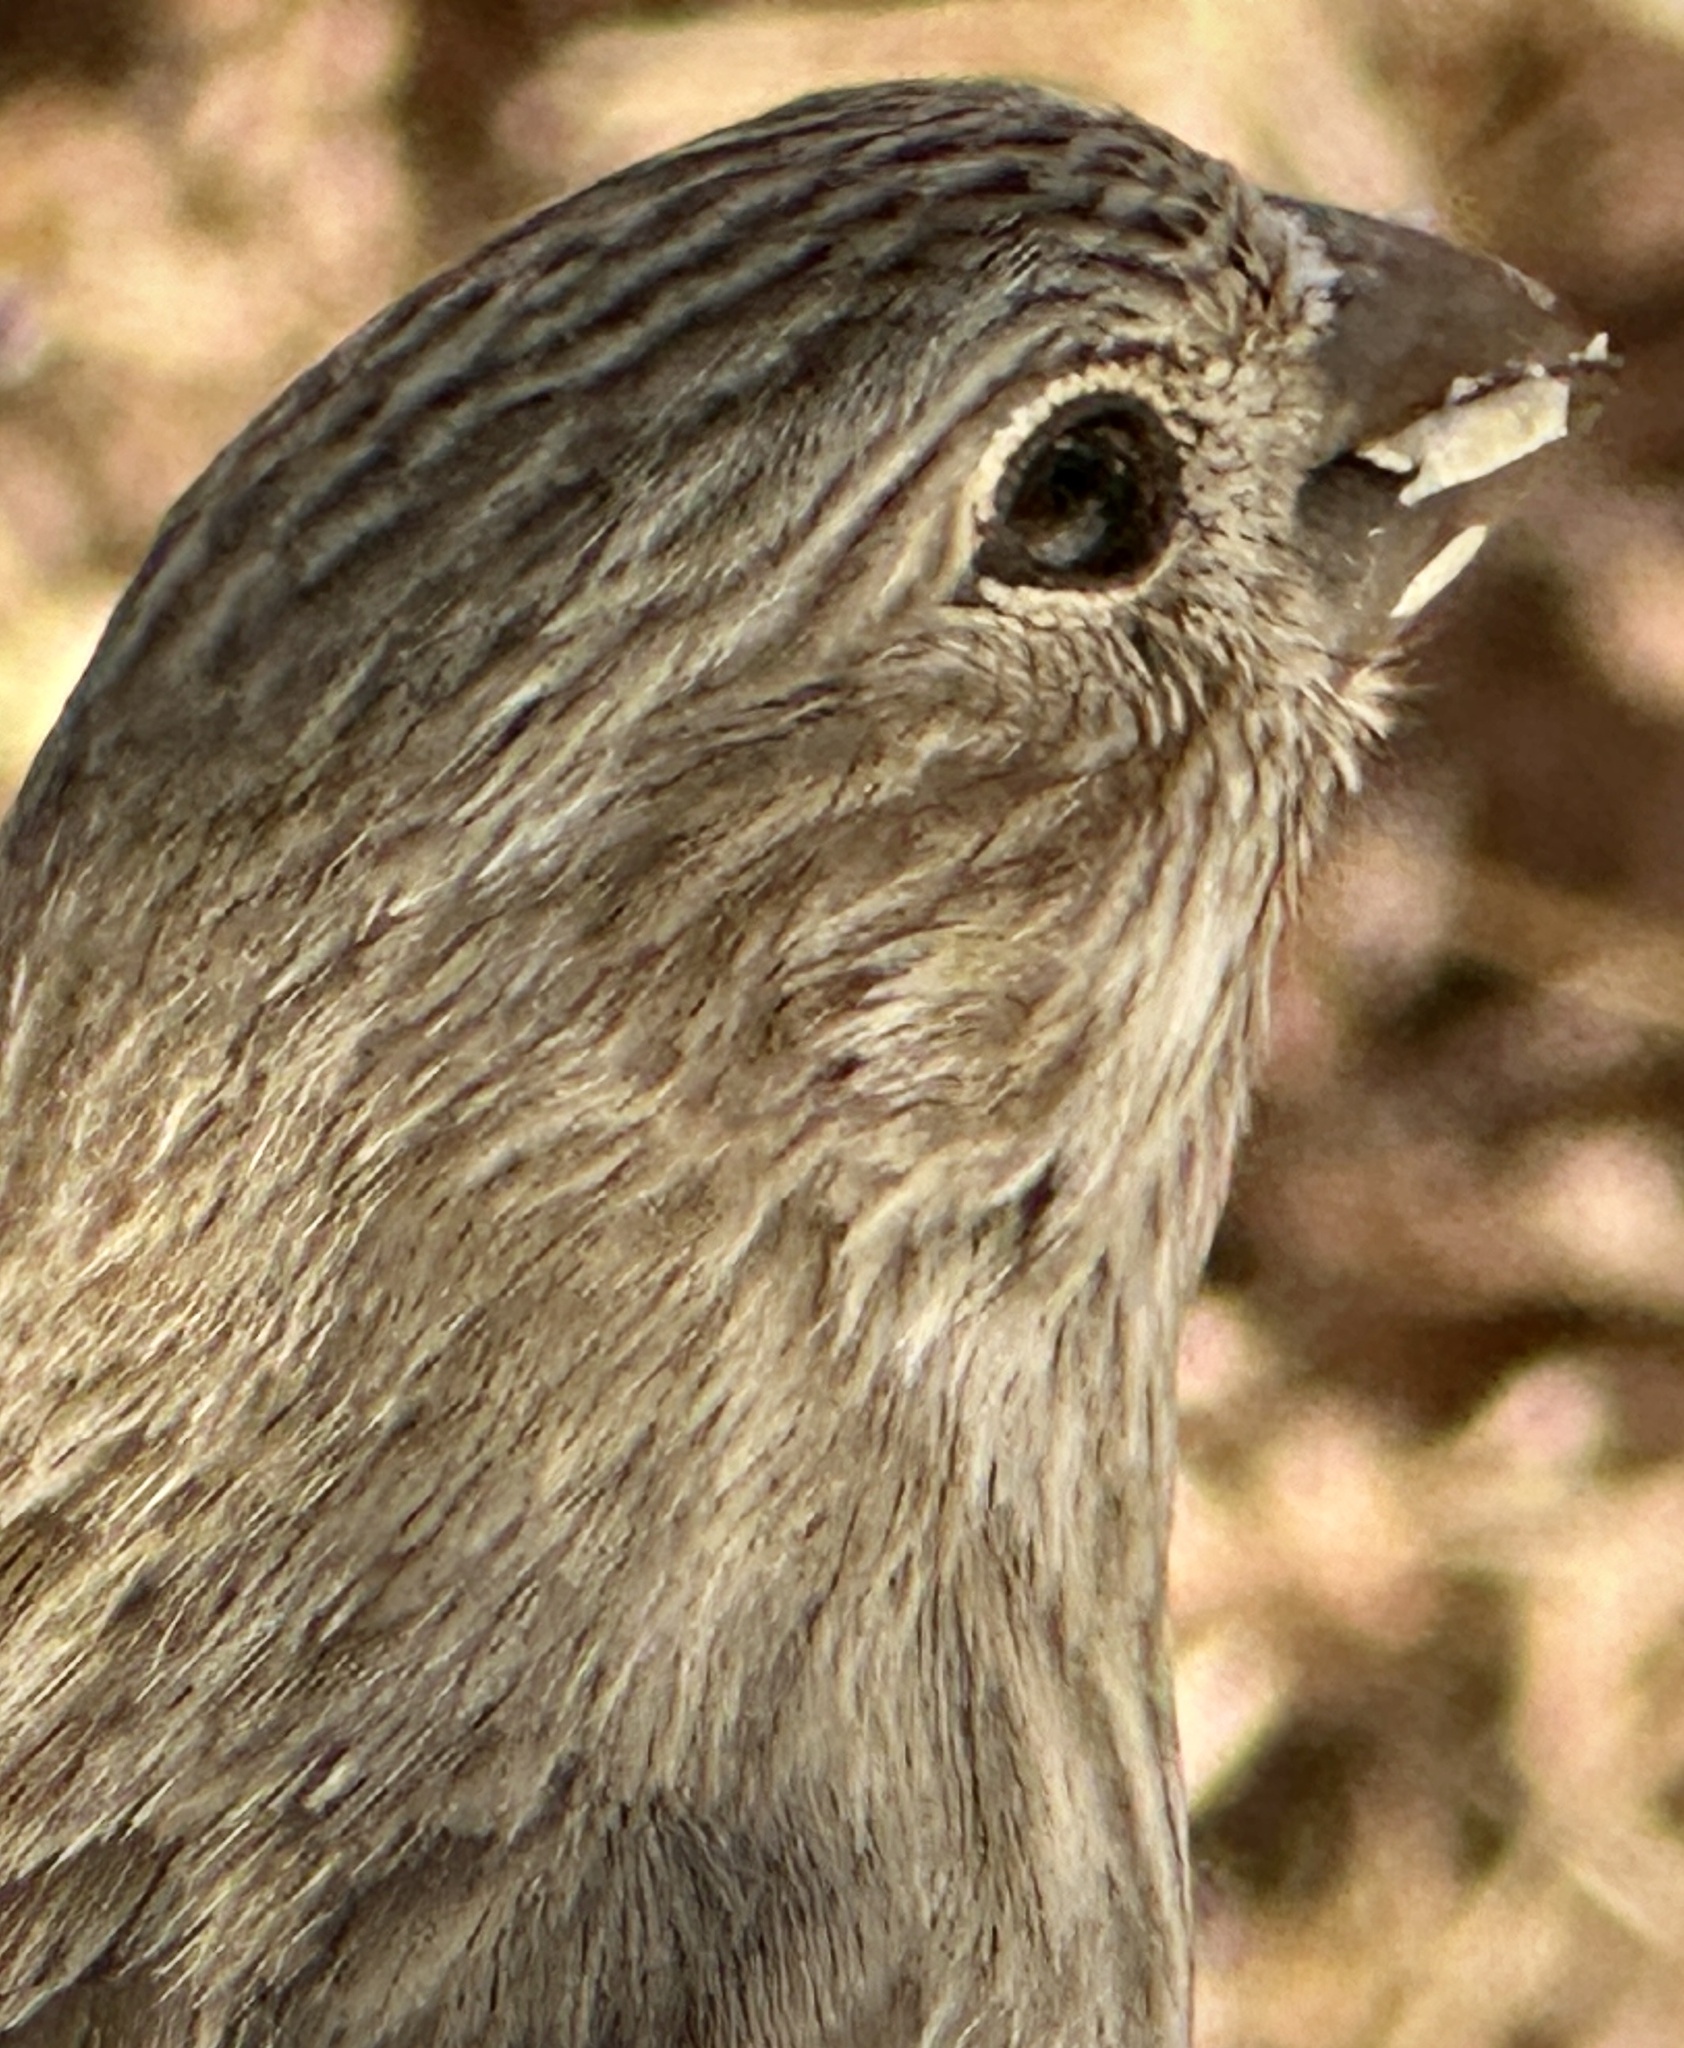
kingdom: Animalia
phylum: Chordata
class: Aves
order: Passeriformes
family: Fringillidae
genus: Haemorhous
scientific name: Haemorhous mexicanus
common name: House finch
